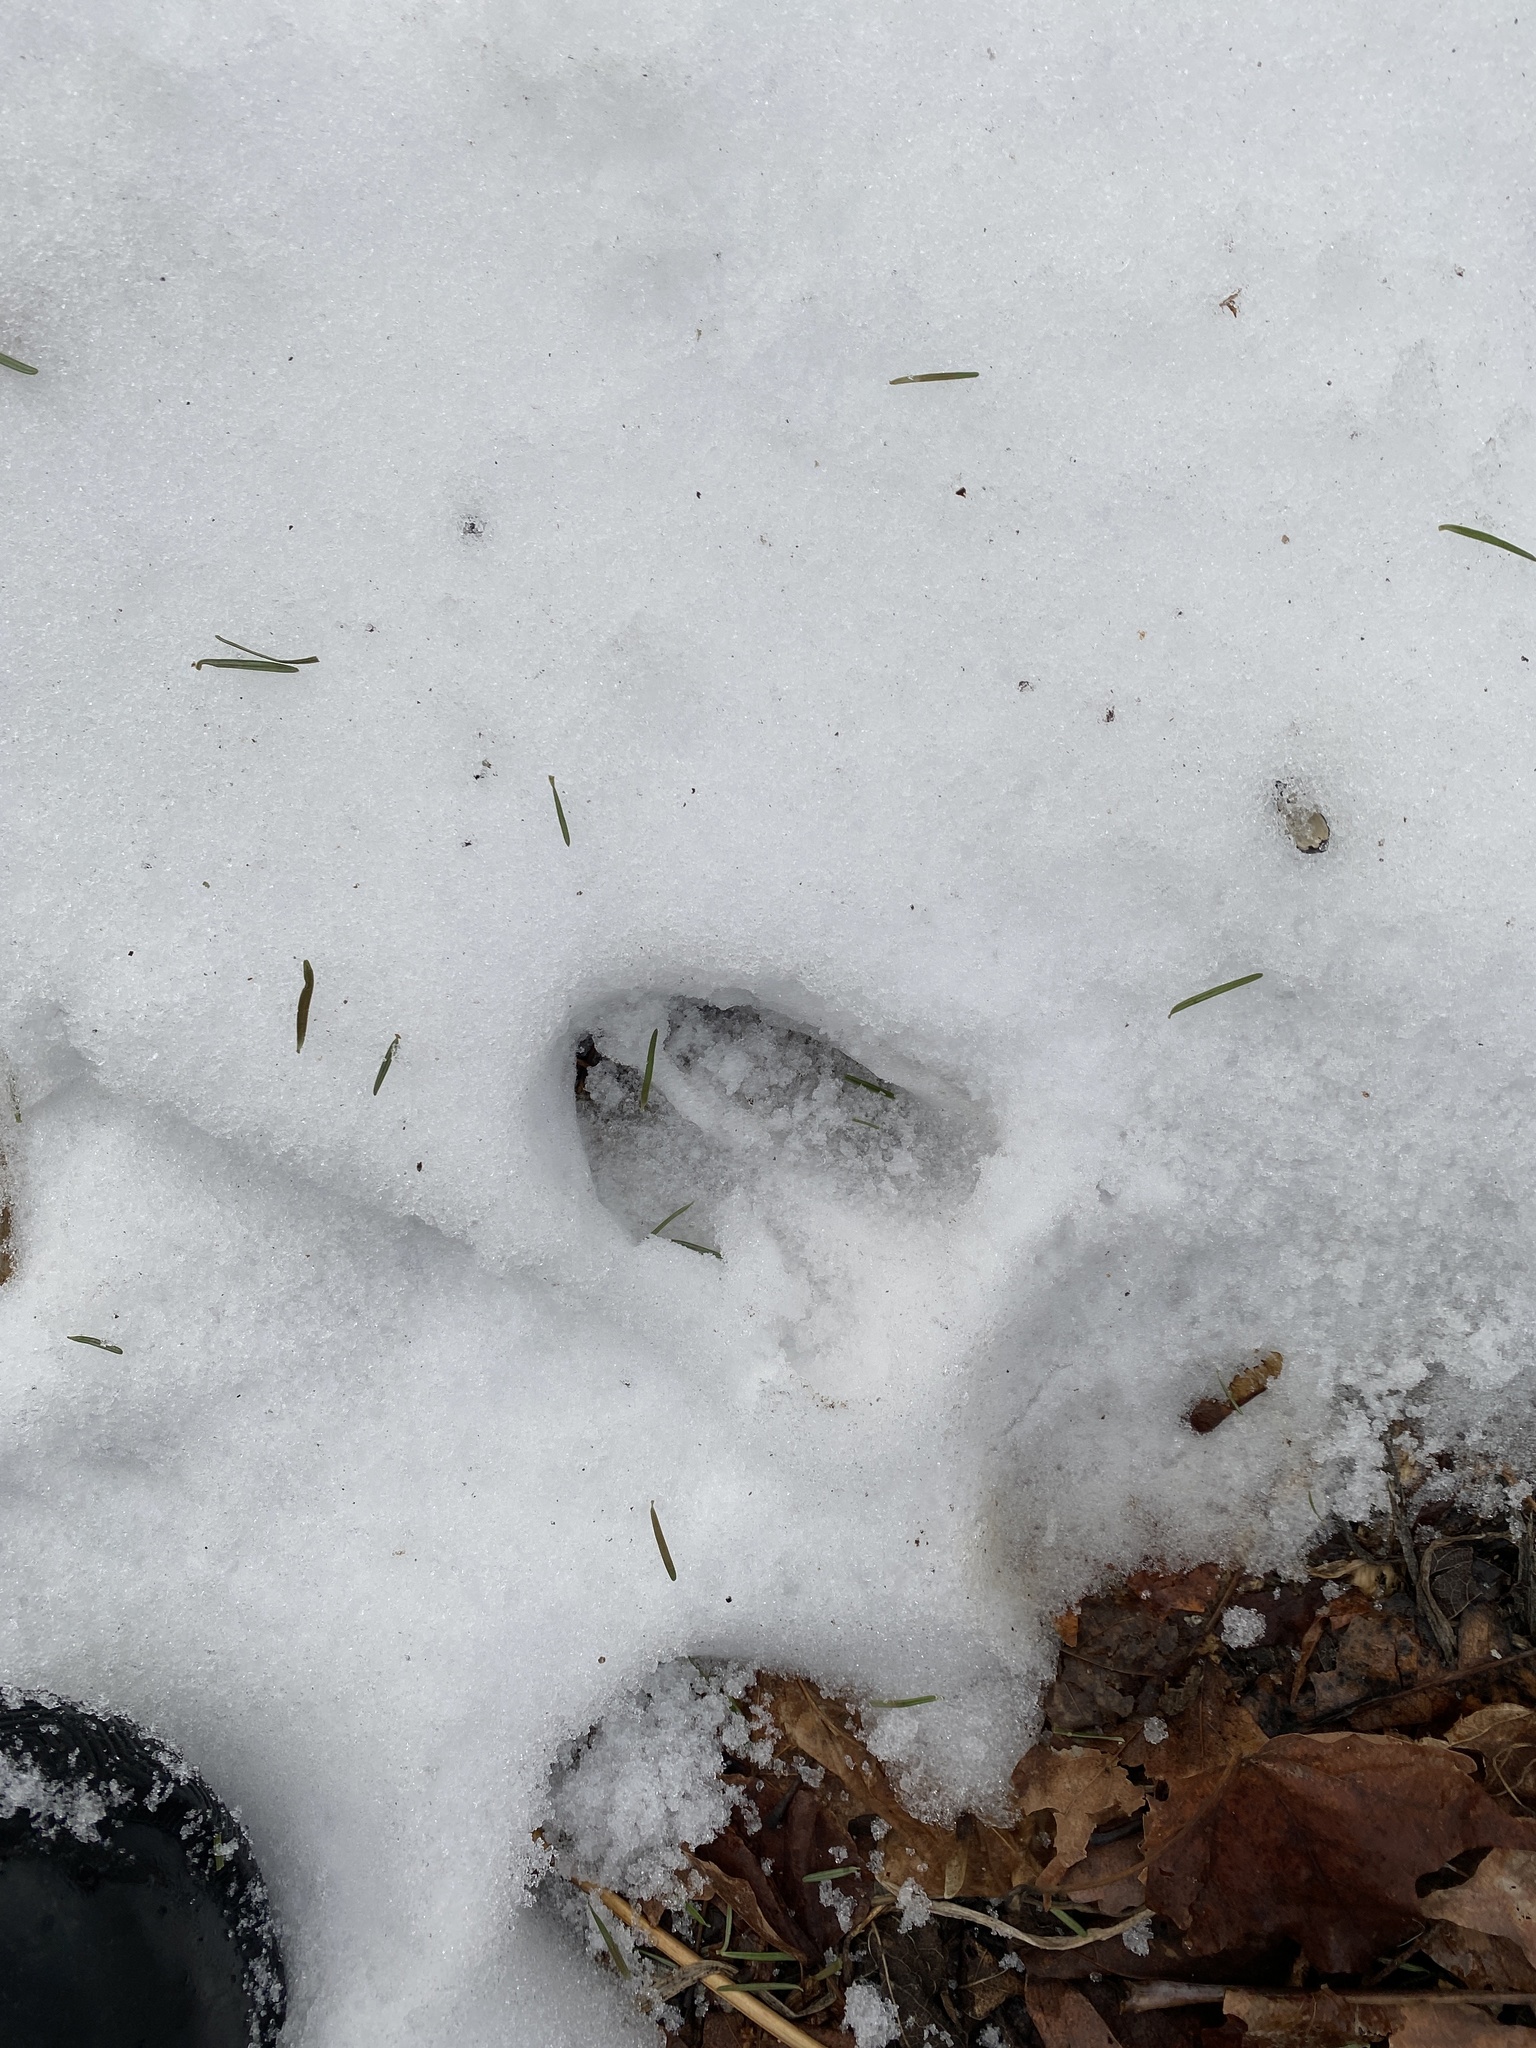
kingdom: Animalia
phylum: Chordata
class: Mammalia
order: Artiodactyla
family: Cervidae
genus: Odocoileus
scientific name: Odocoileus virginianus
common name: White-tailed deer
